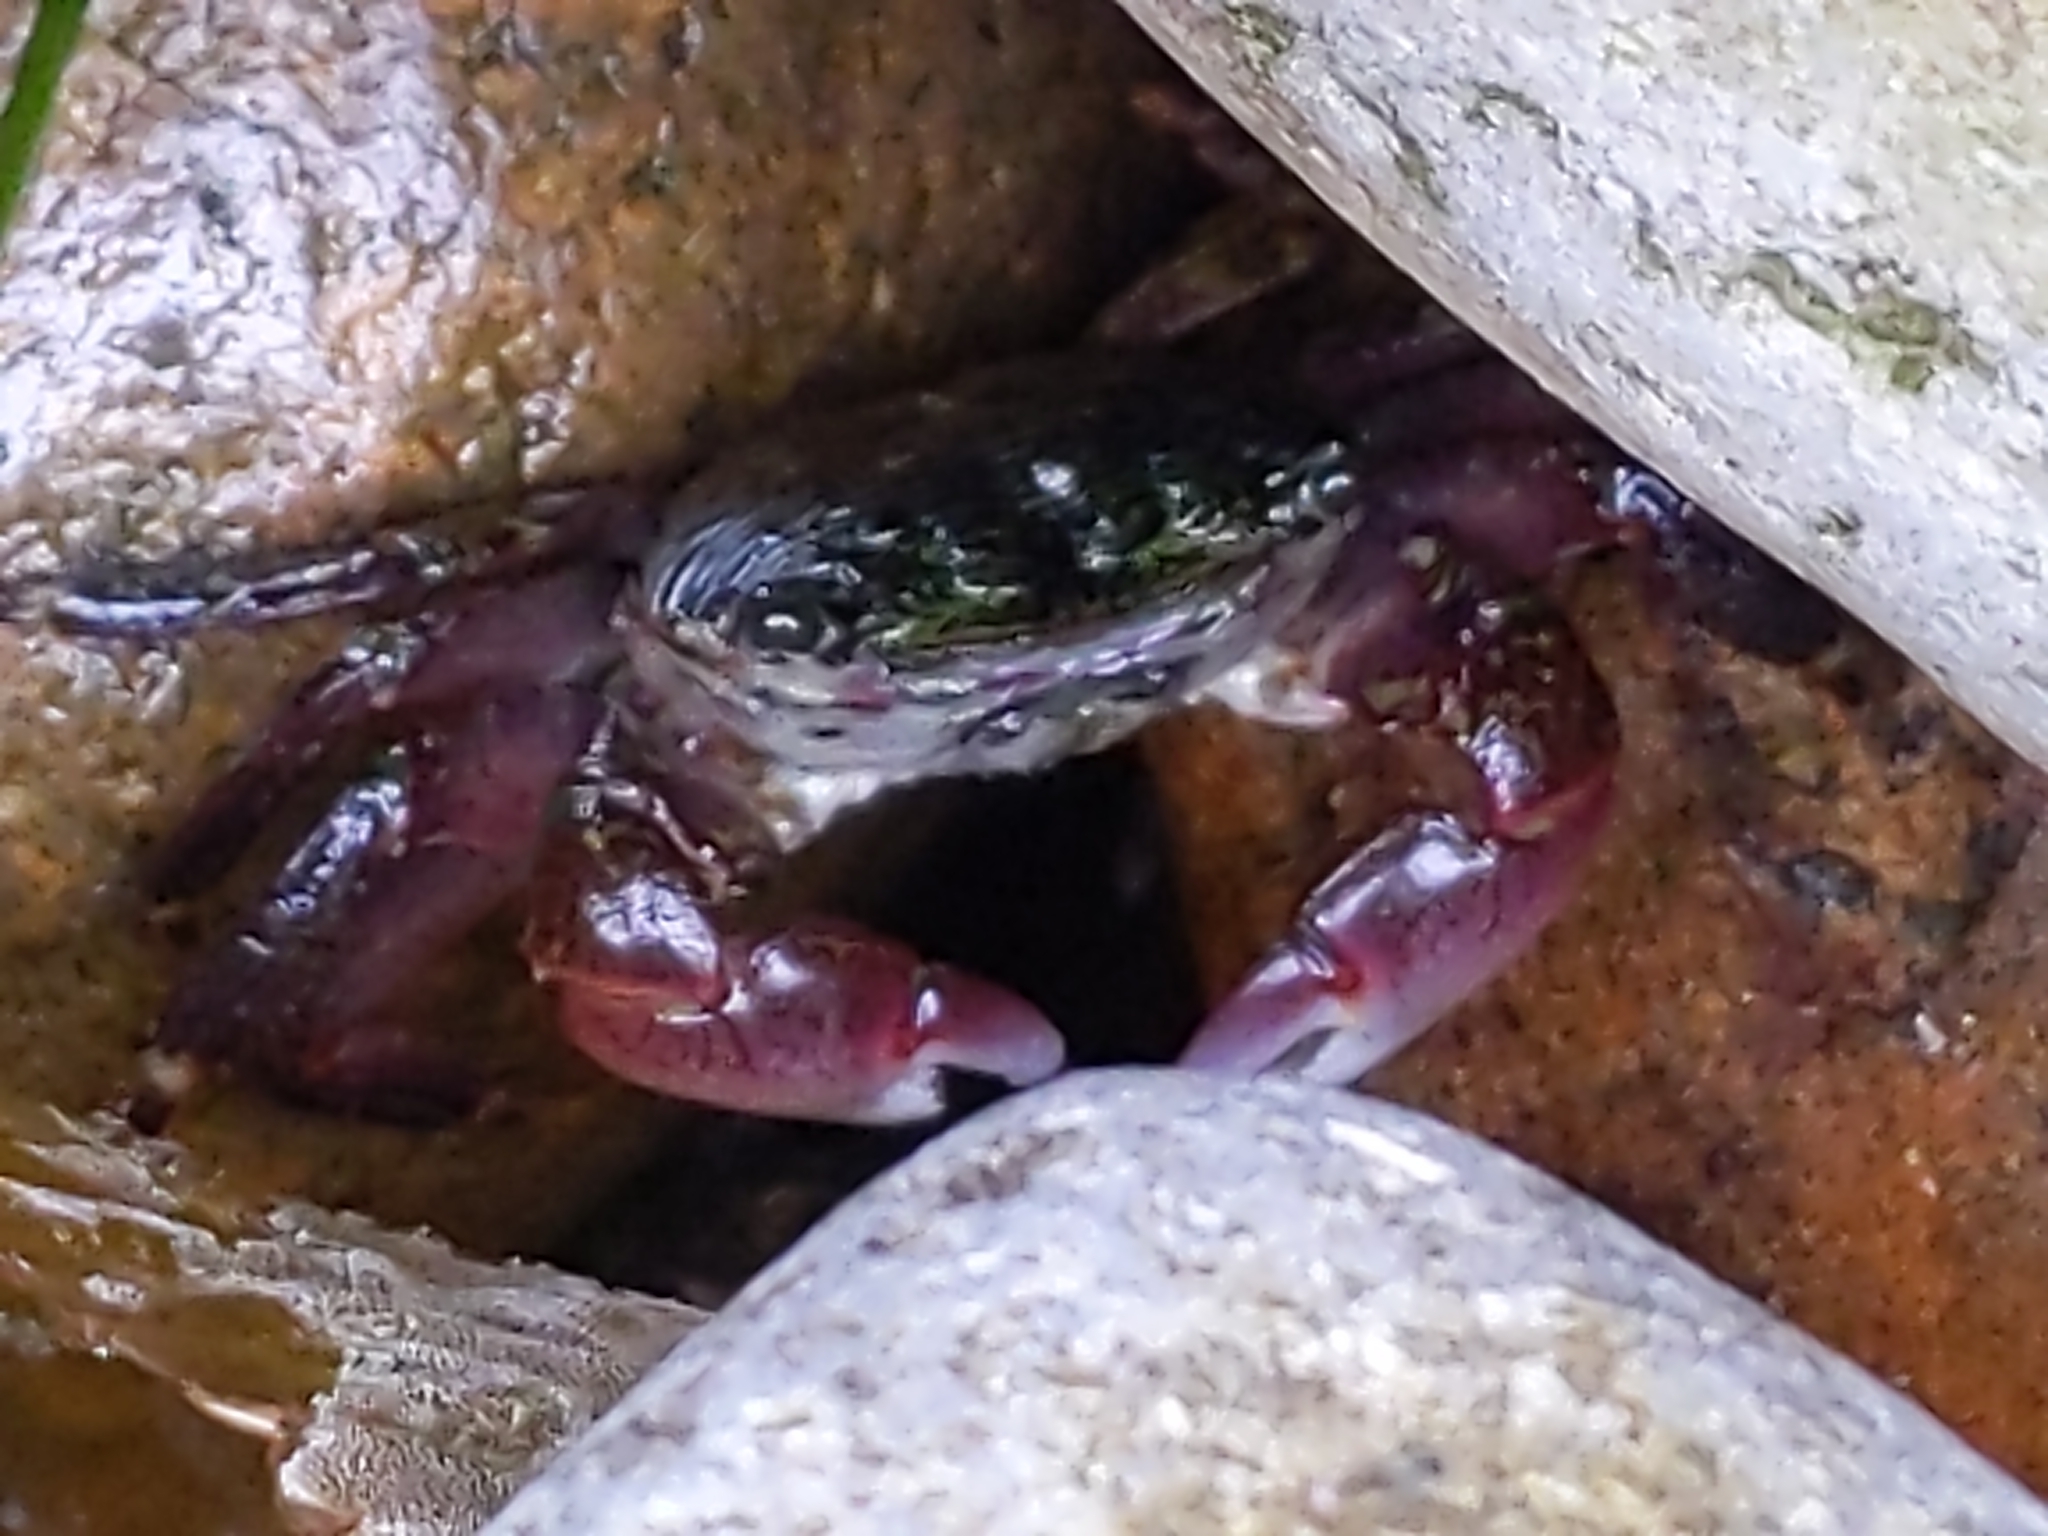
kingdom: Animalia
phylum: Arthropoda
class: Malacostraca
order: Decapoda
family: Grapsidae
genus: Pachygrapsus
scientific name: Pachygrapsus crassipes
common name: Striped shore crab
